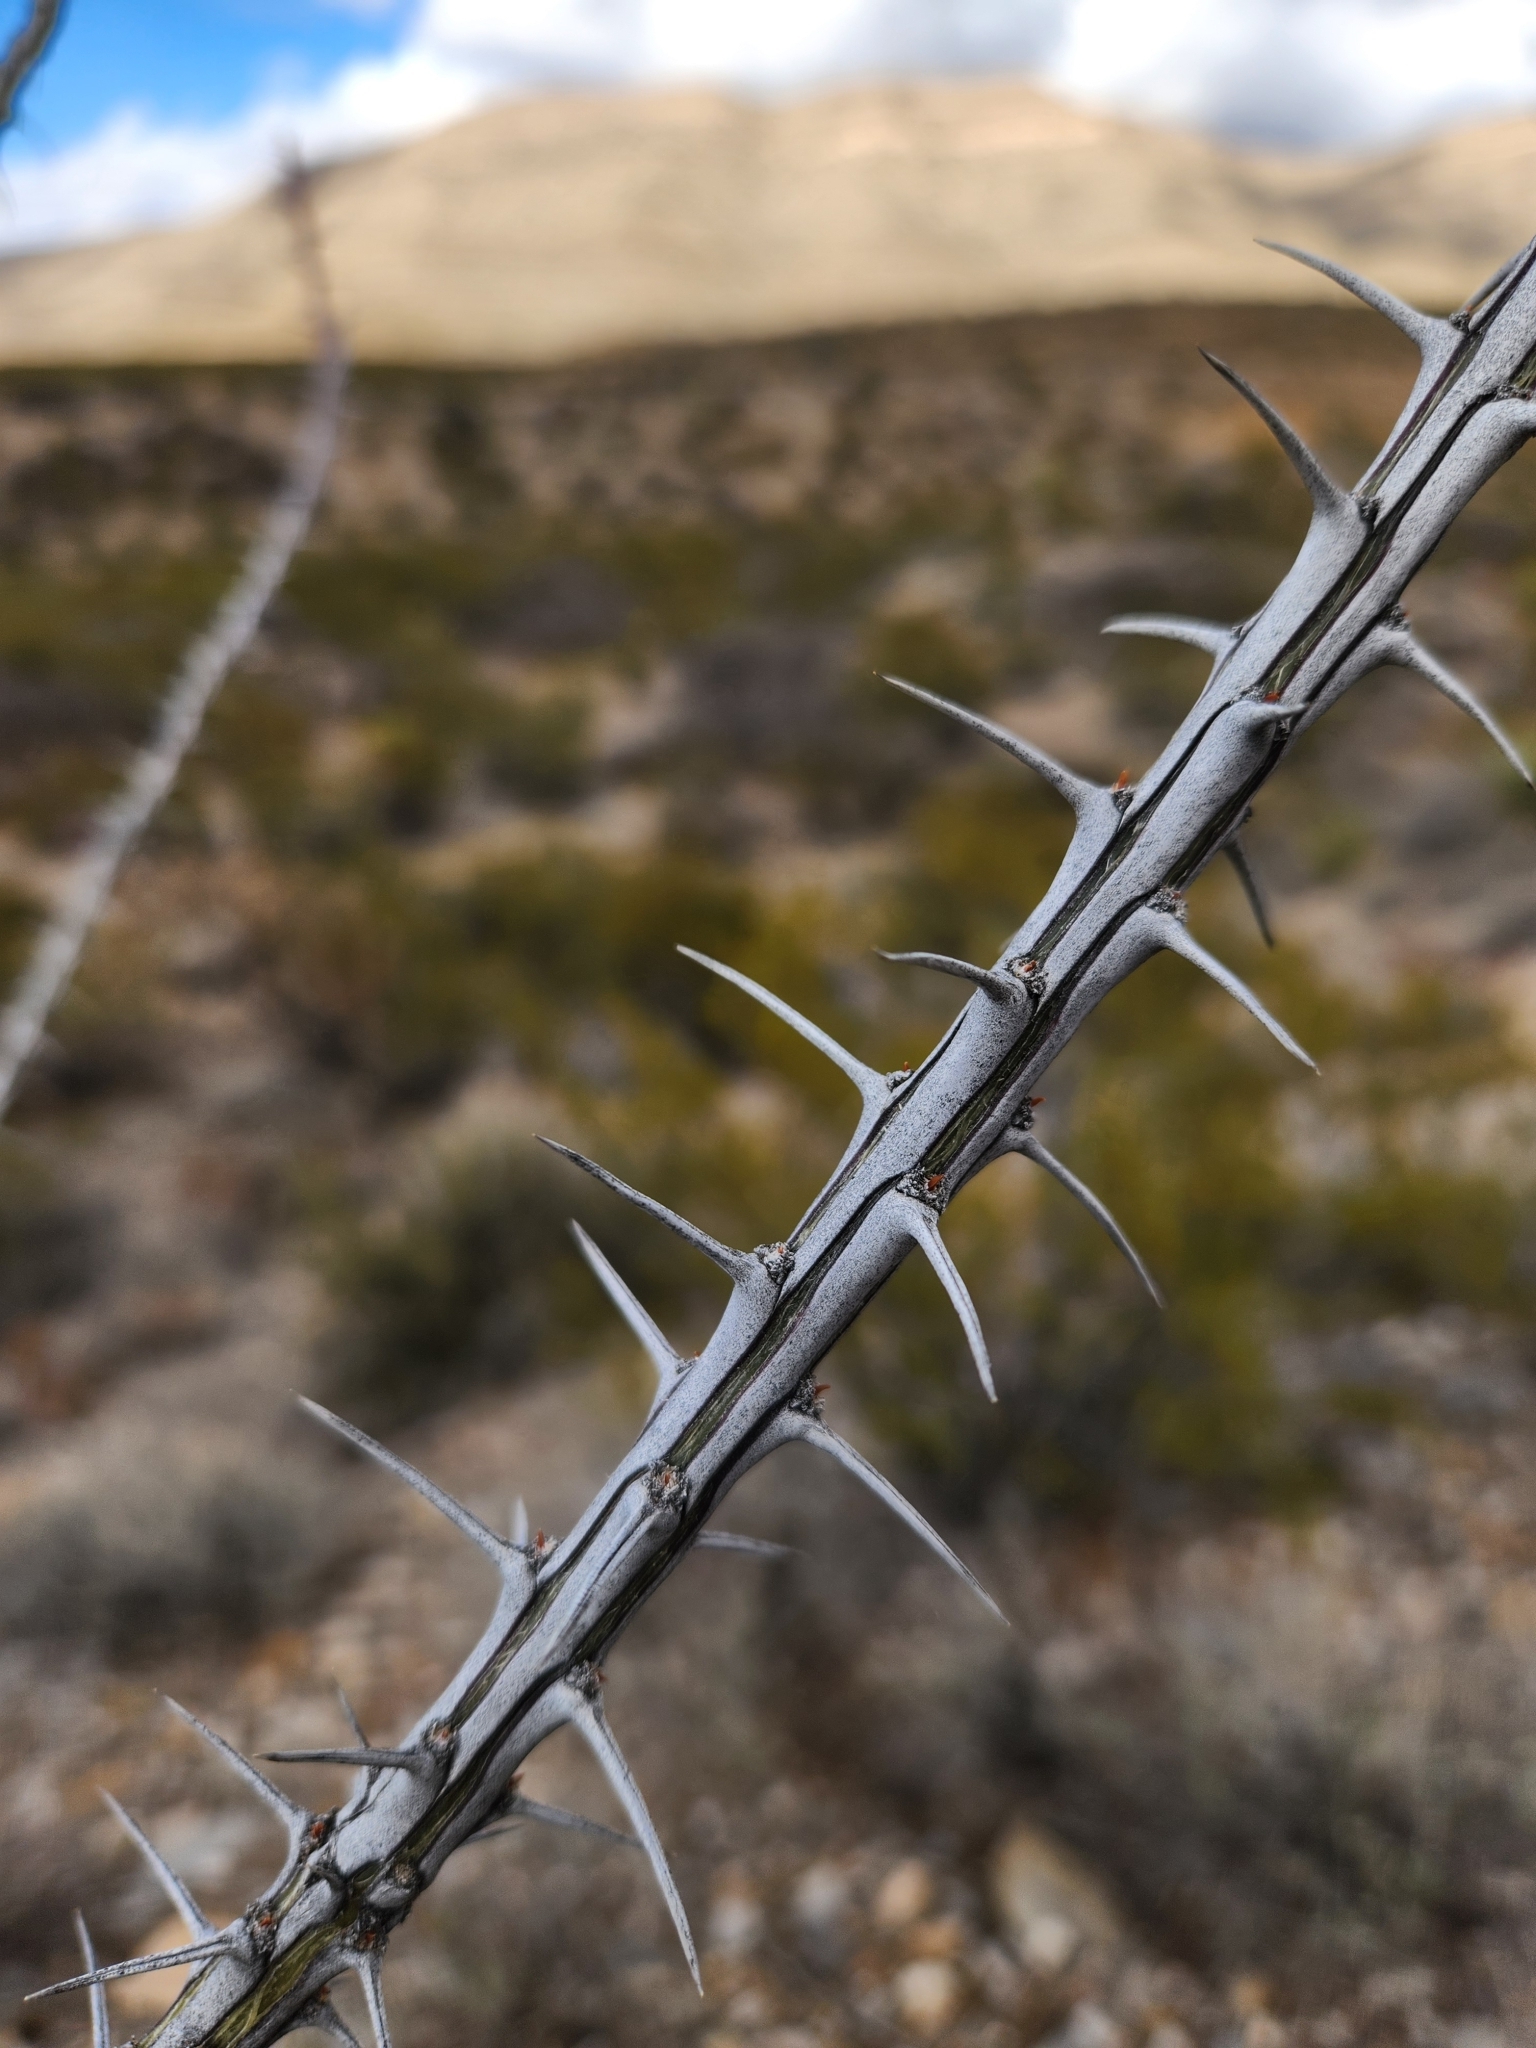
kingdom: Plantae
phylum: Tracheophyta
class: Magnoliopsida
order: Ericales
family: Fouquieriaceae
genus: Fouquieria
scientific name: Fouquieria splendens
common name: Vine-cactus
